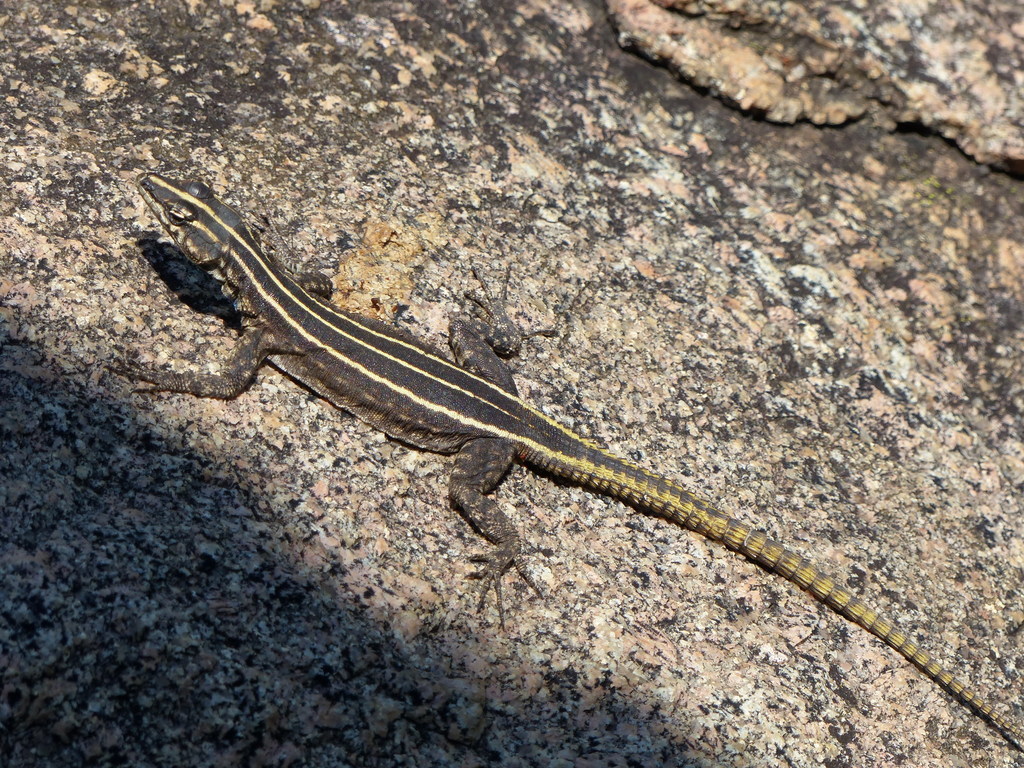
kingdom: Animalia
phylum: Chordata
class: Squamata
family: Cordylidae
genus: Platysaurus
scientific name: Platysaurus intermedius
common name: Common flat lizard
